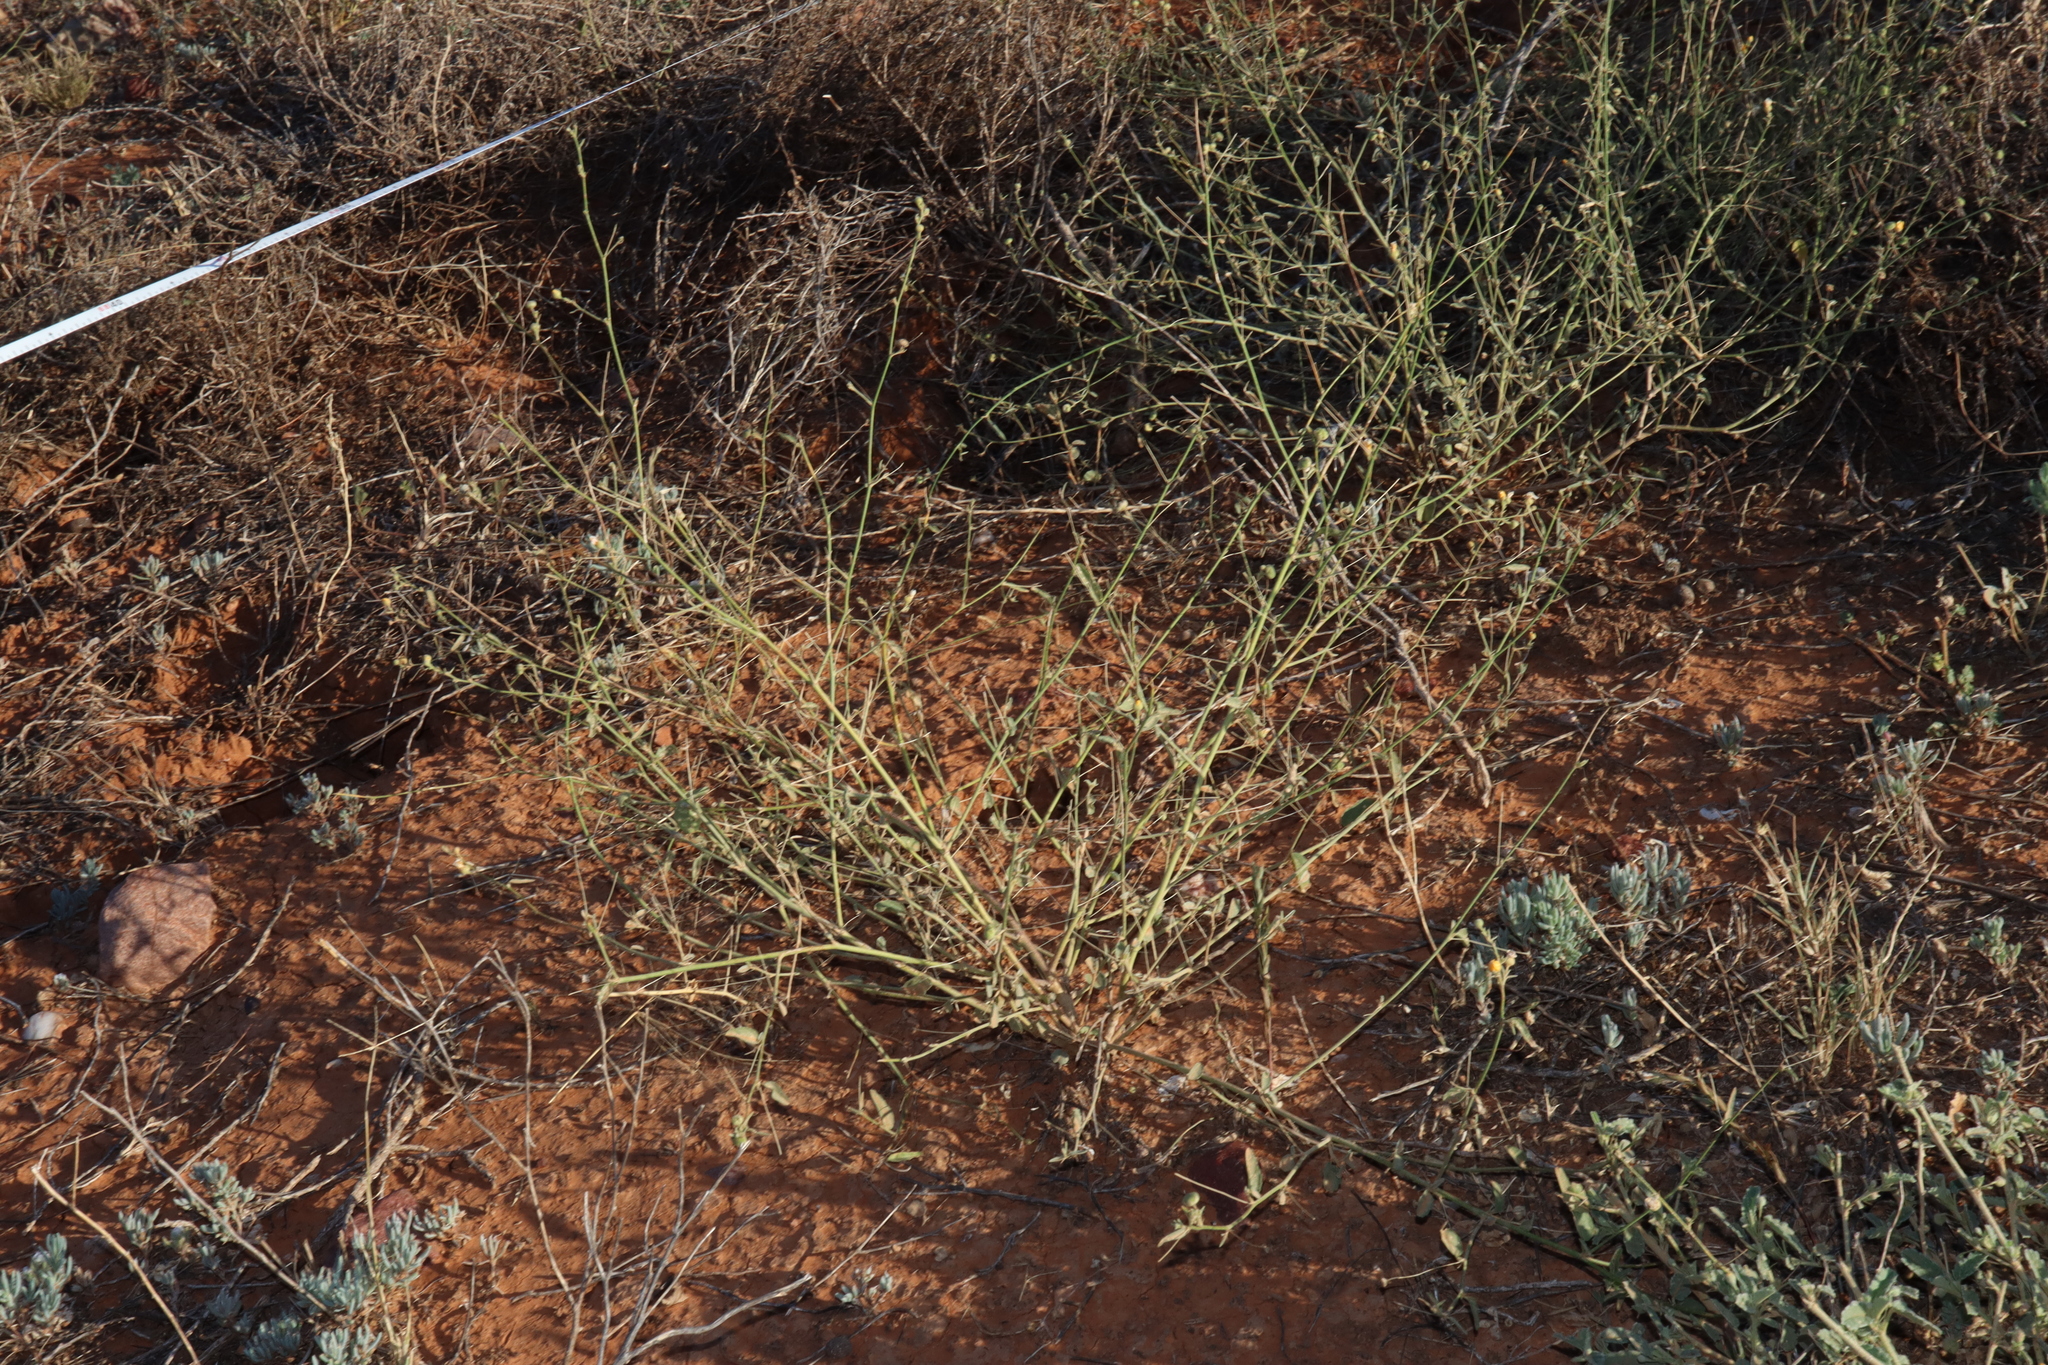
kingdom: Plantae
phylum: Tracheophyta
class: Magnoliopsida
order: Malvales
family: Malvaceae
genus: Sida
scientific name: Sida trichopoda
